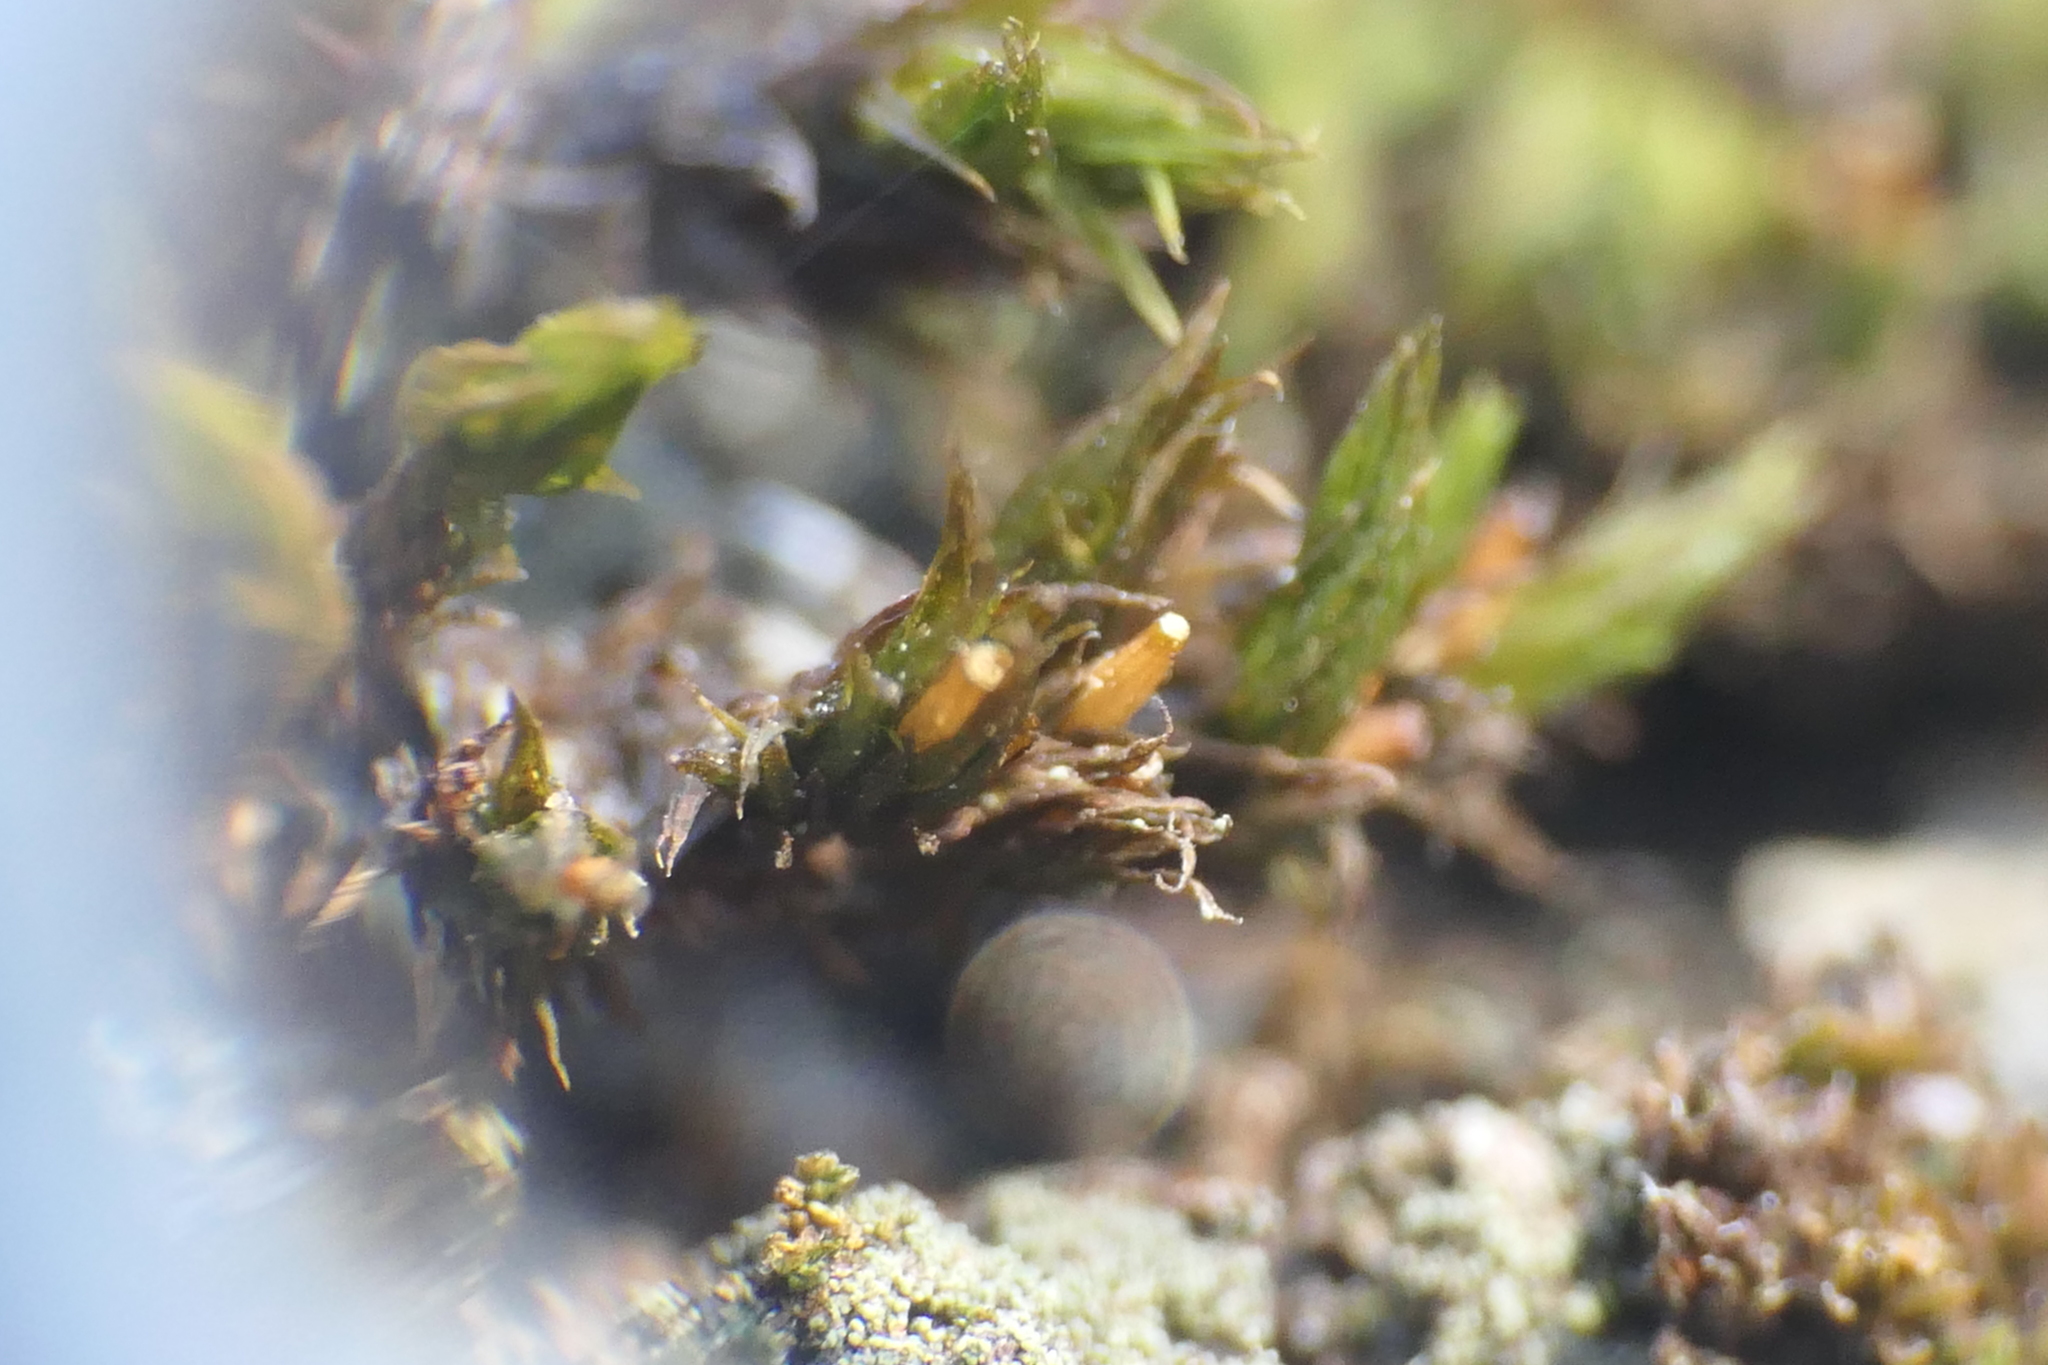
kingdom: Plantae
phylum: Bryophyta
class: Bryopsida
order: Orthotrichales
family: Orthotrichaceae
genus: Lewinskya
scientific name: Lewinskya acuminata
